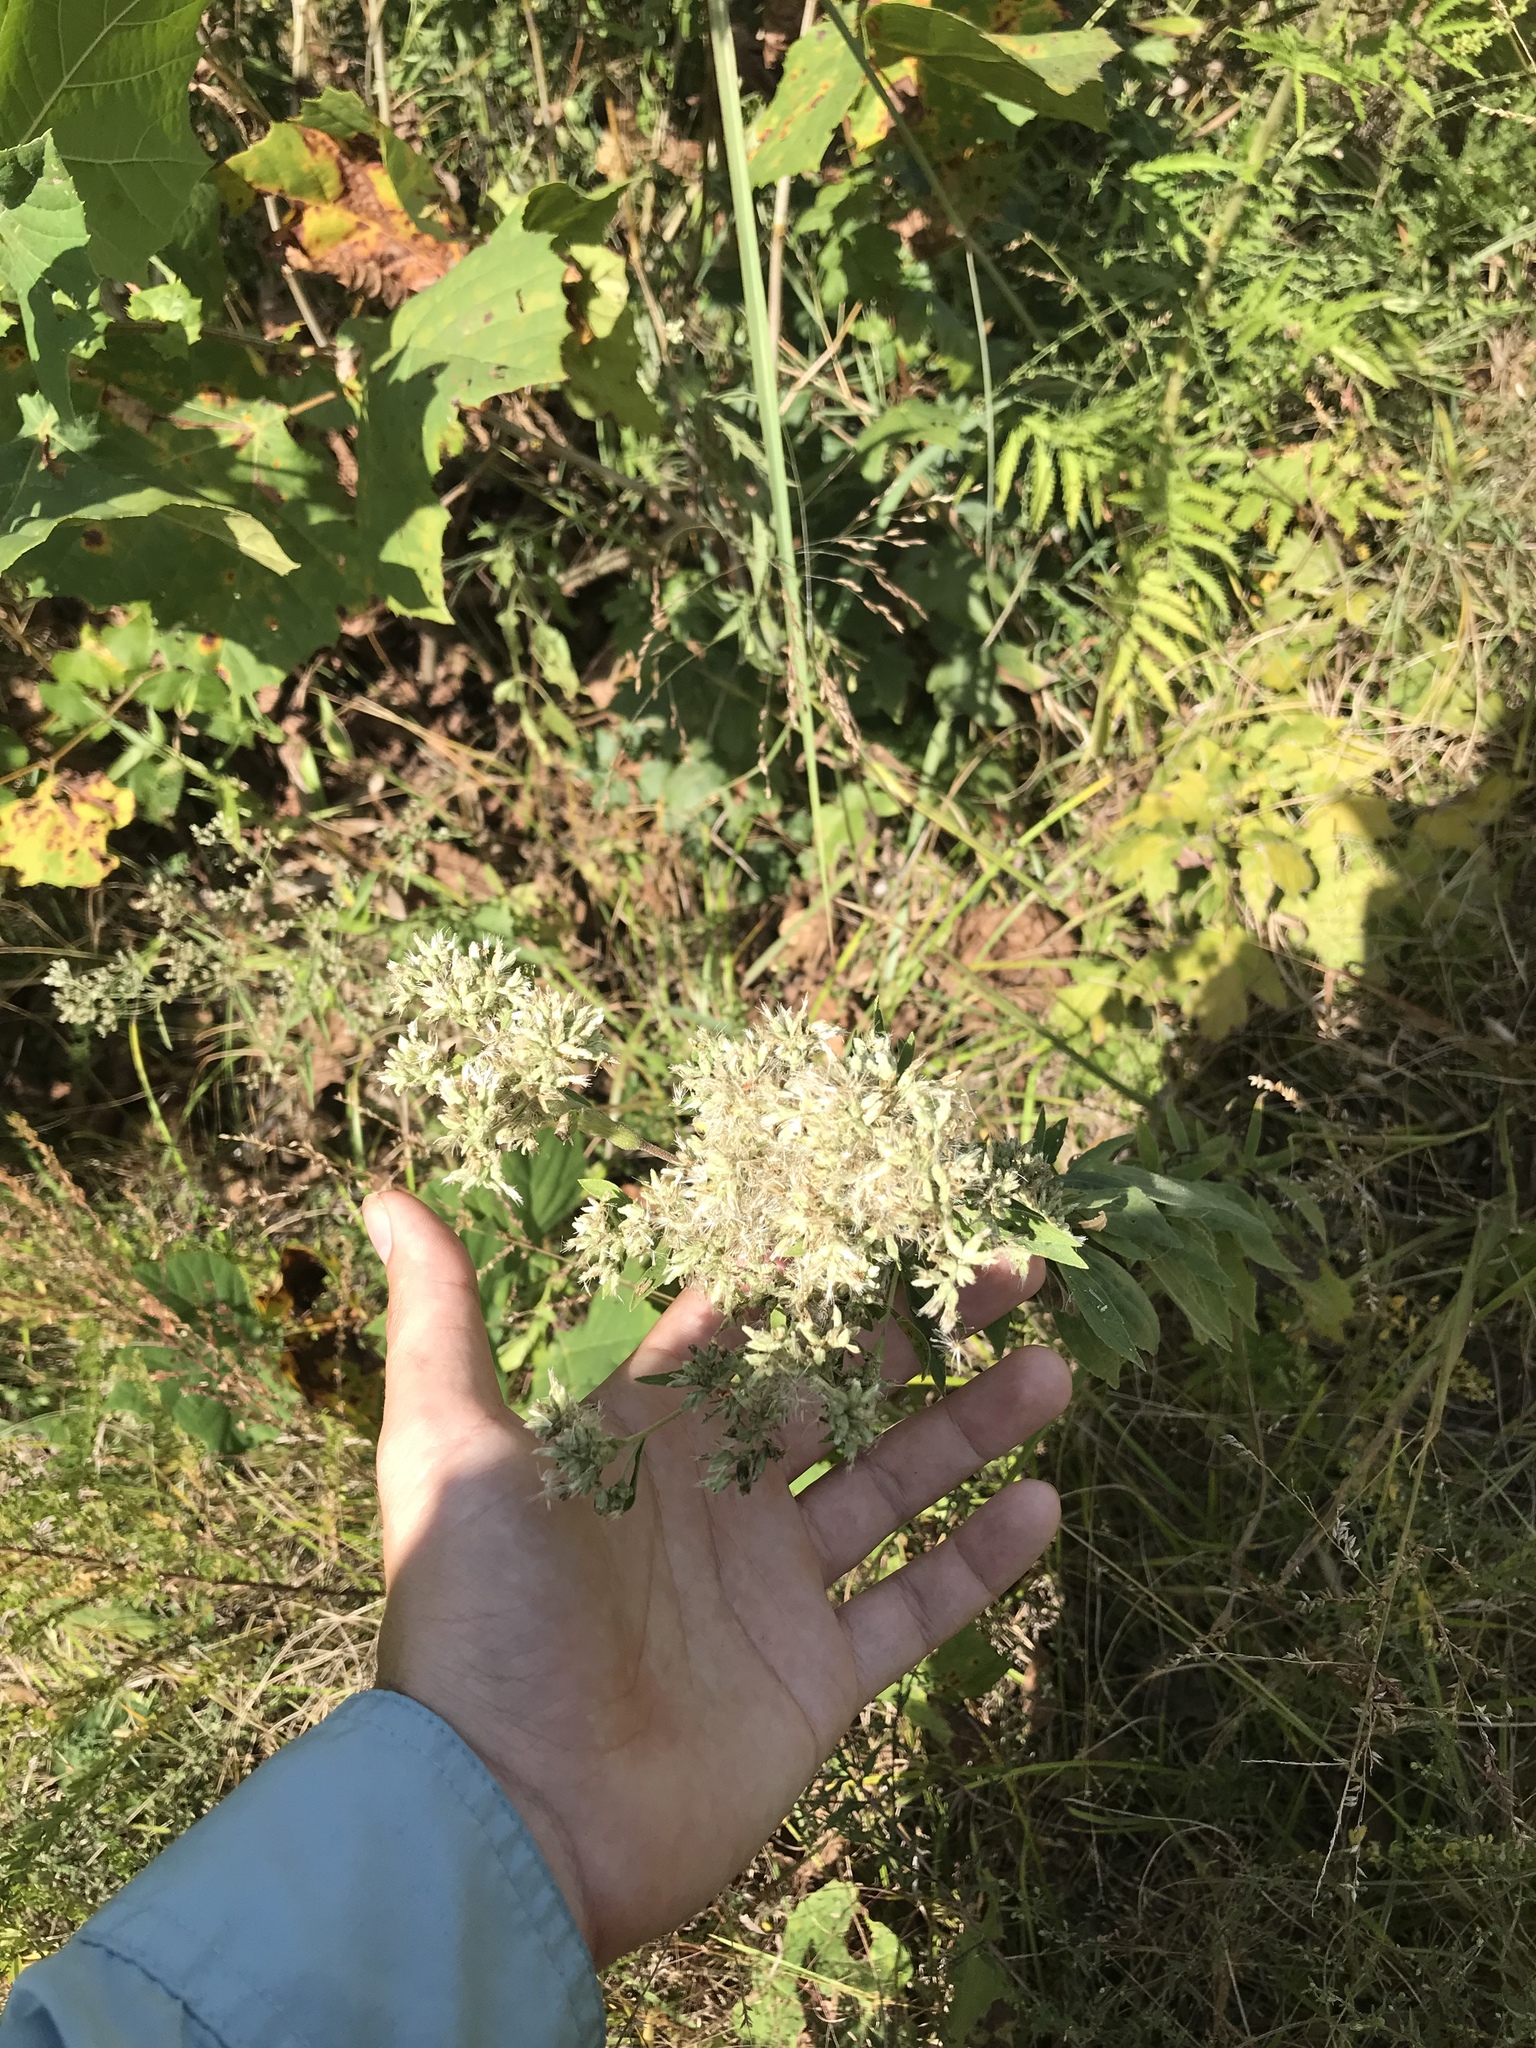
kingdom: Plantae
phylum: Tracheophyta
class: Magnoliopsida
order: Asterales
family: Asteraceae
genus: Eupatorium
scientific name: Eupatorium altissimum
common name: Tall thoroughwort
